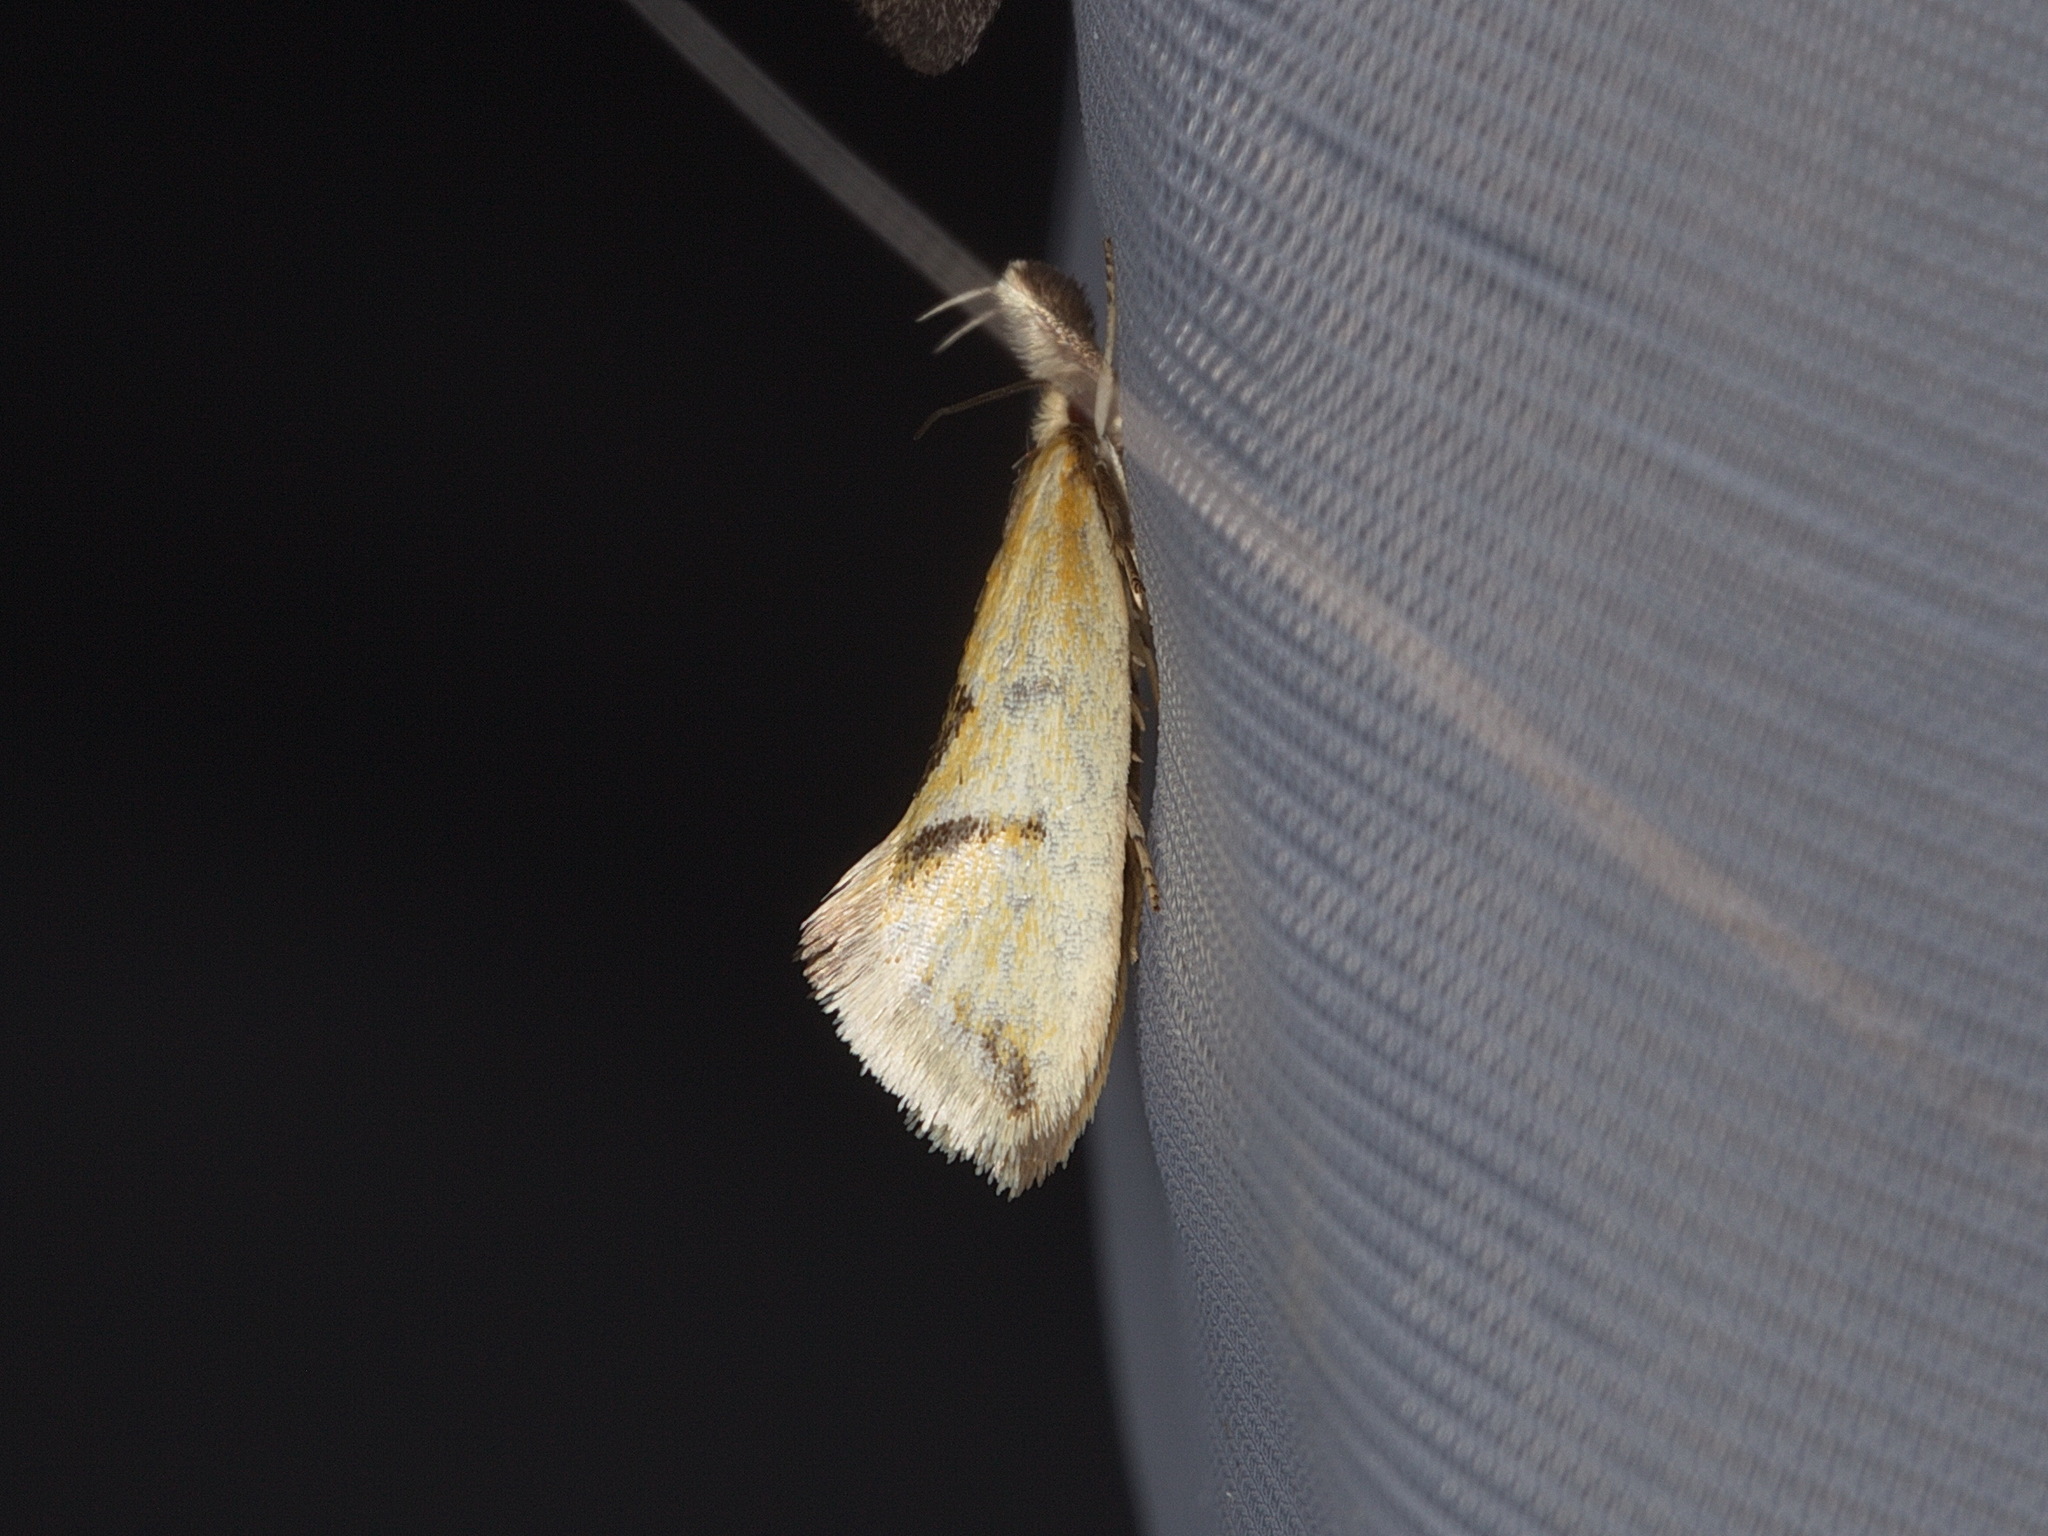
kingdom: Animalia
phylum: Arthropoda
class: Insecta
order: Lepidoptera
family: Oecophoridae
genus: Thema
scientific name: Thema psammoxantha
